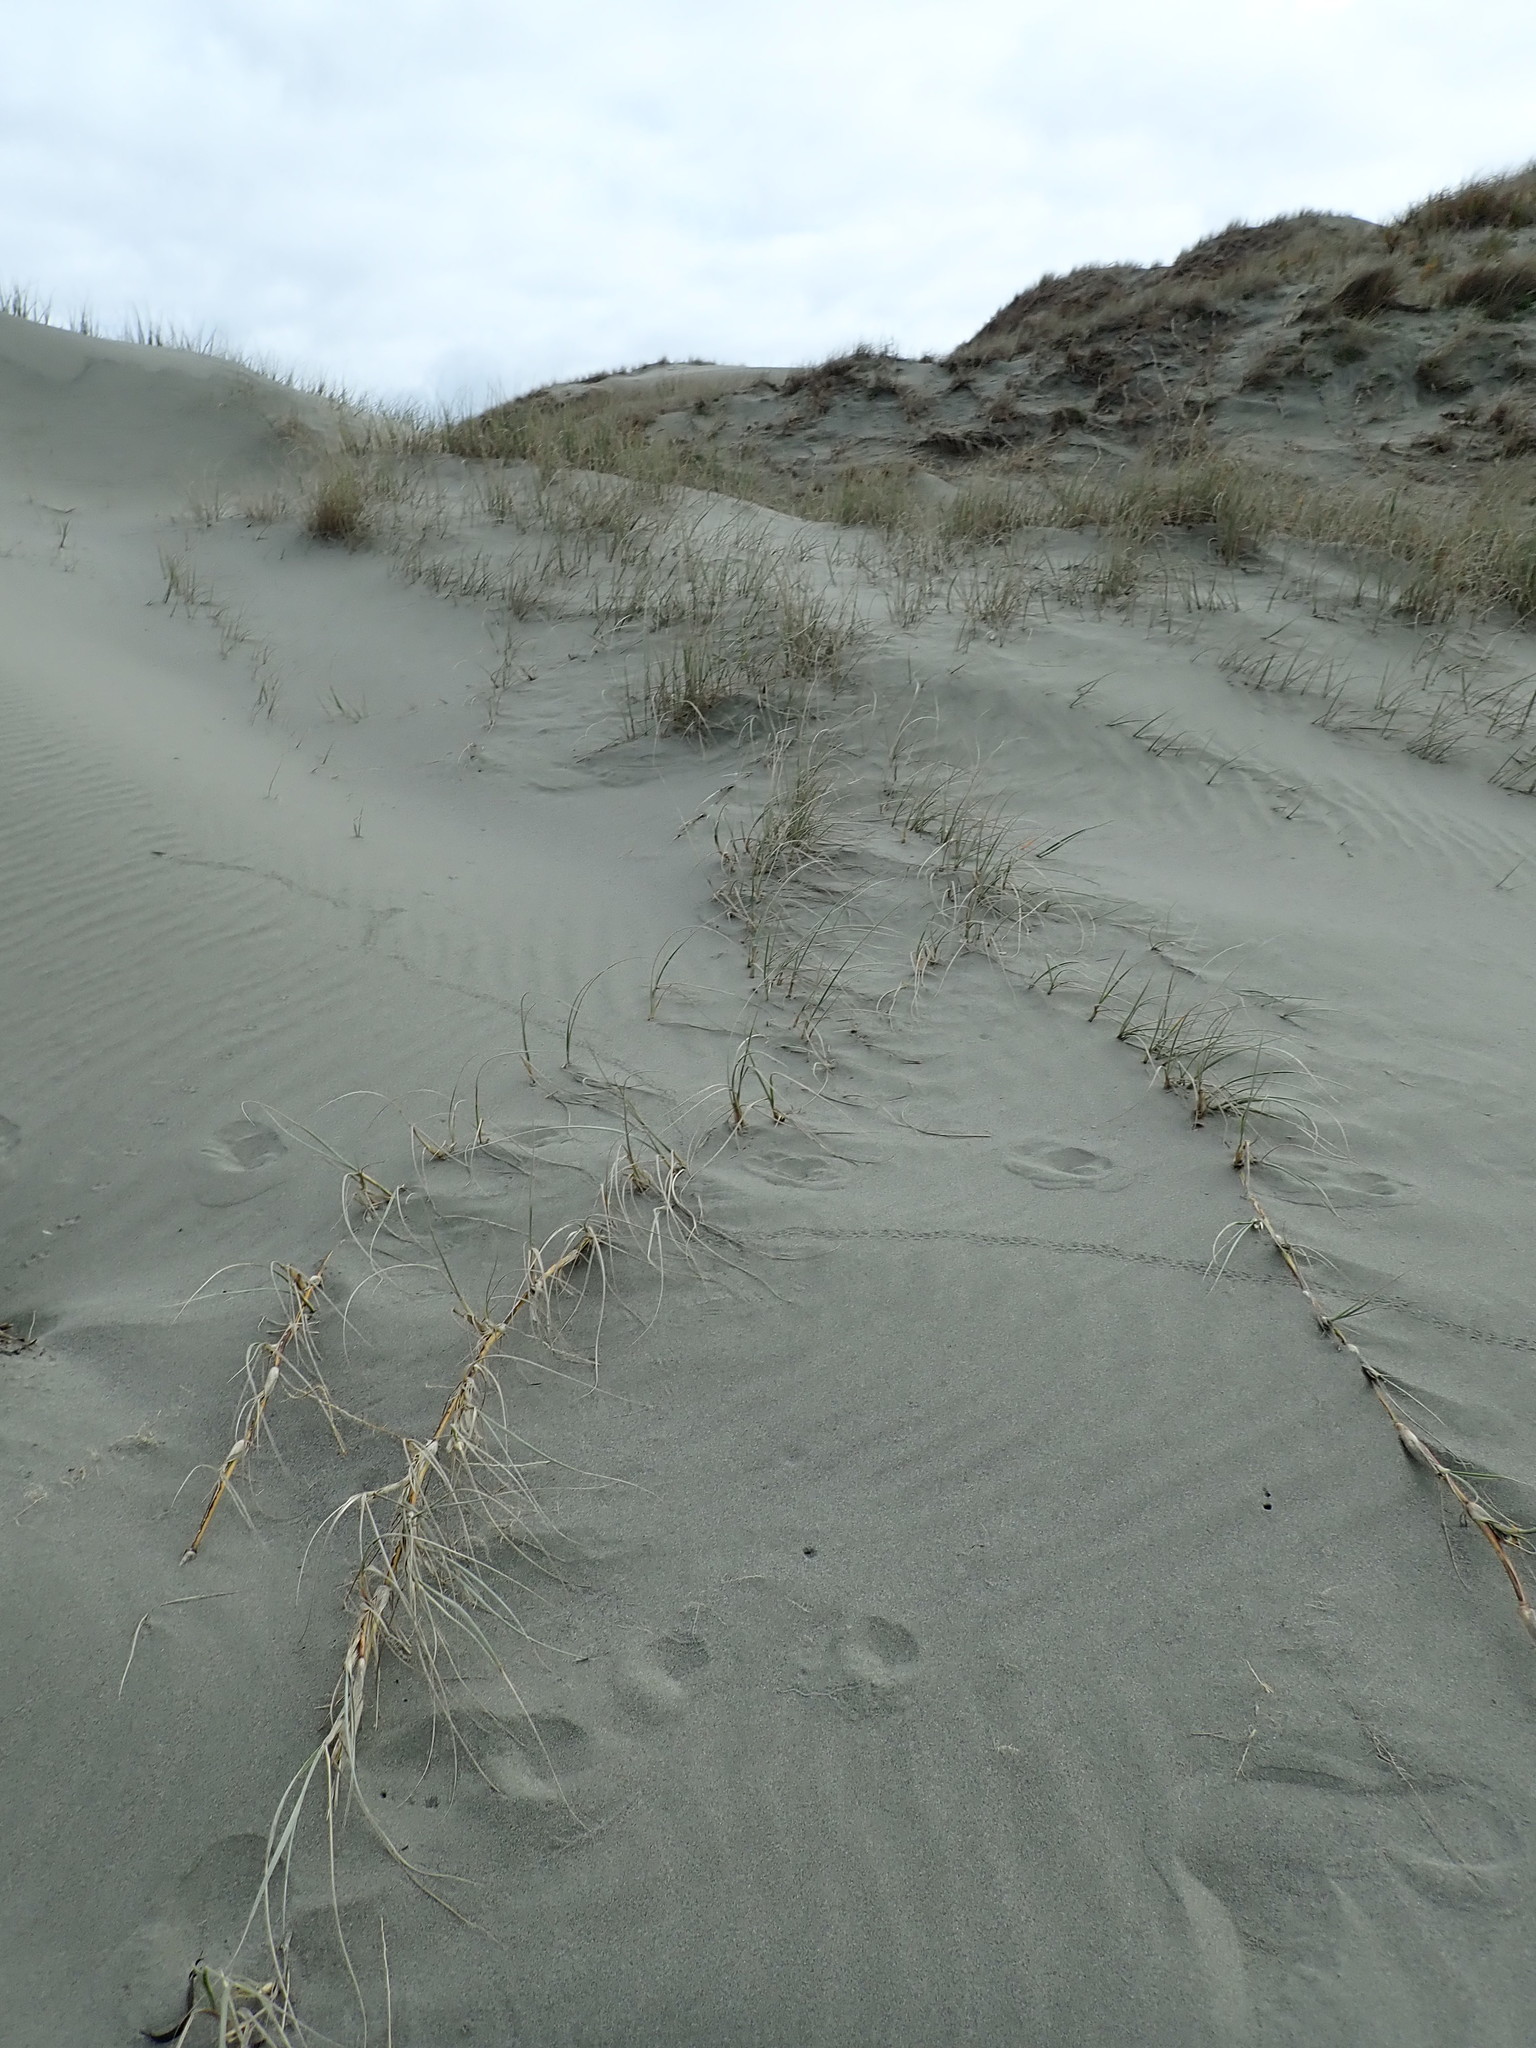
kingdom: Plantae
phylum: Tracheophyta
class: Liliopsida
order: Poales
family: Poaceae
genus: Spinifex
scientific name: Spinifex sericeus
